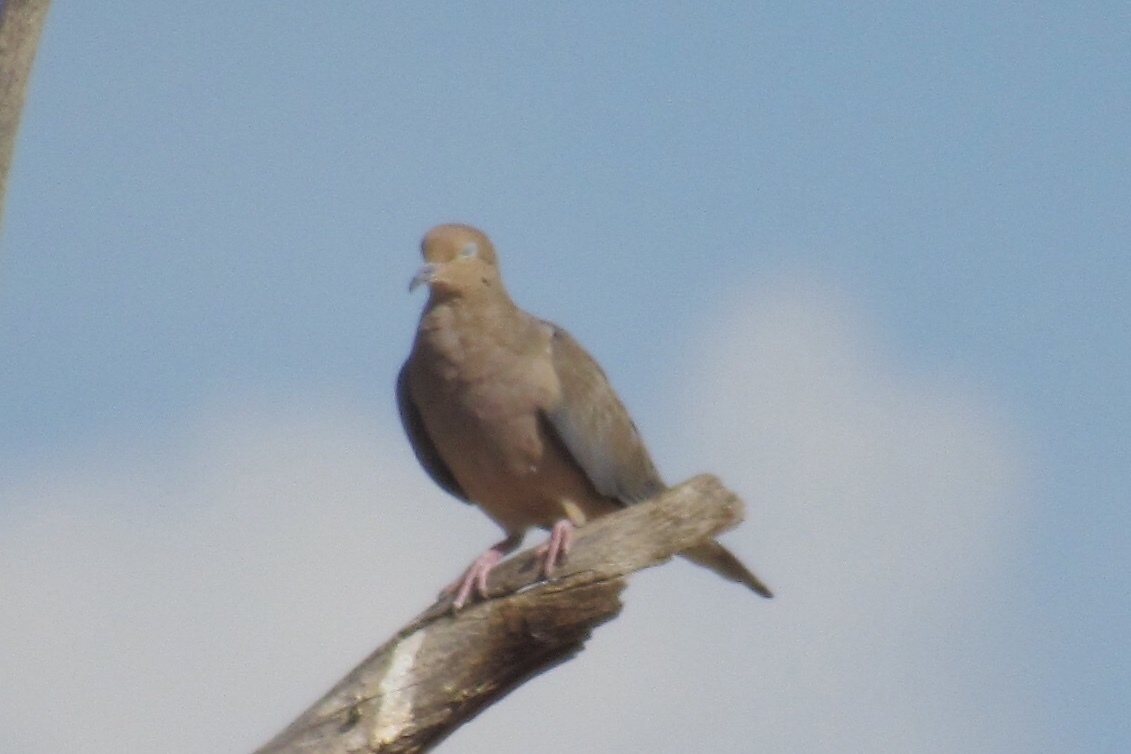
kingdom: Animalia
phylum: Chordata
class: Aves
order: Columbiformes
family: Columbidae
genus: Zenaida
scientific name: Zenaida macroura
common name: Mourning dove
